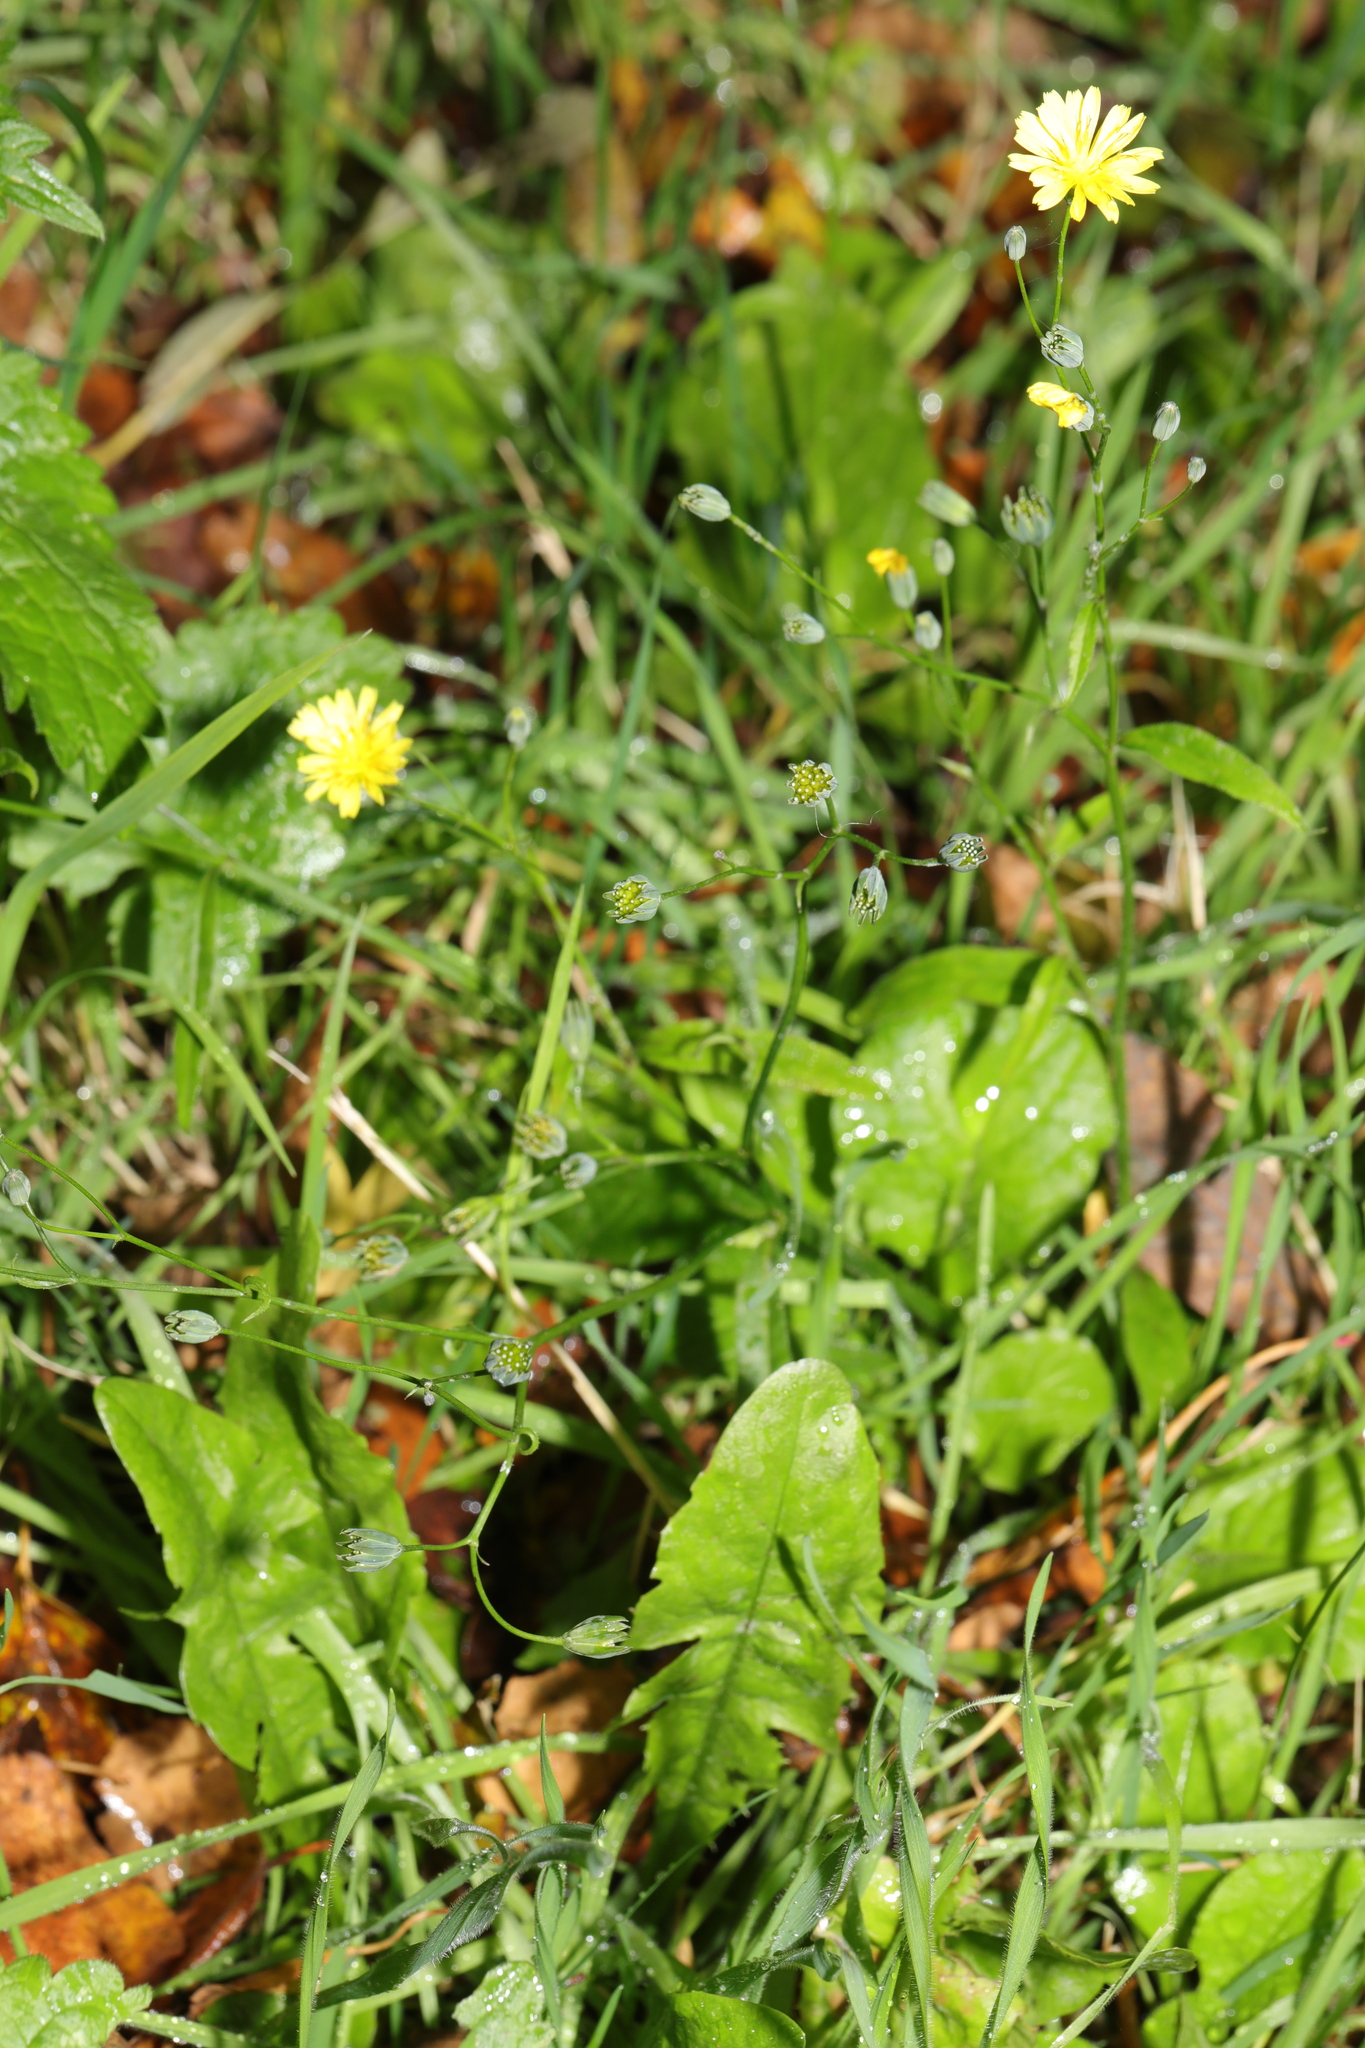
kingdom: Plantae
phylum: Tracheophyta
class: Magnoliopsida
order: Asterales
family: Asteraceae
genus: Lapsana
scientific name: Lapsana communis
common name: Nipplewort
